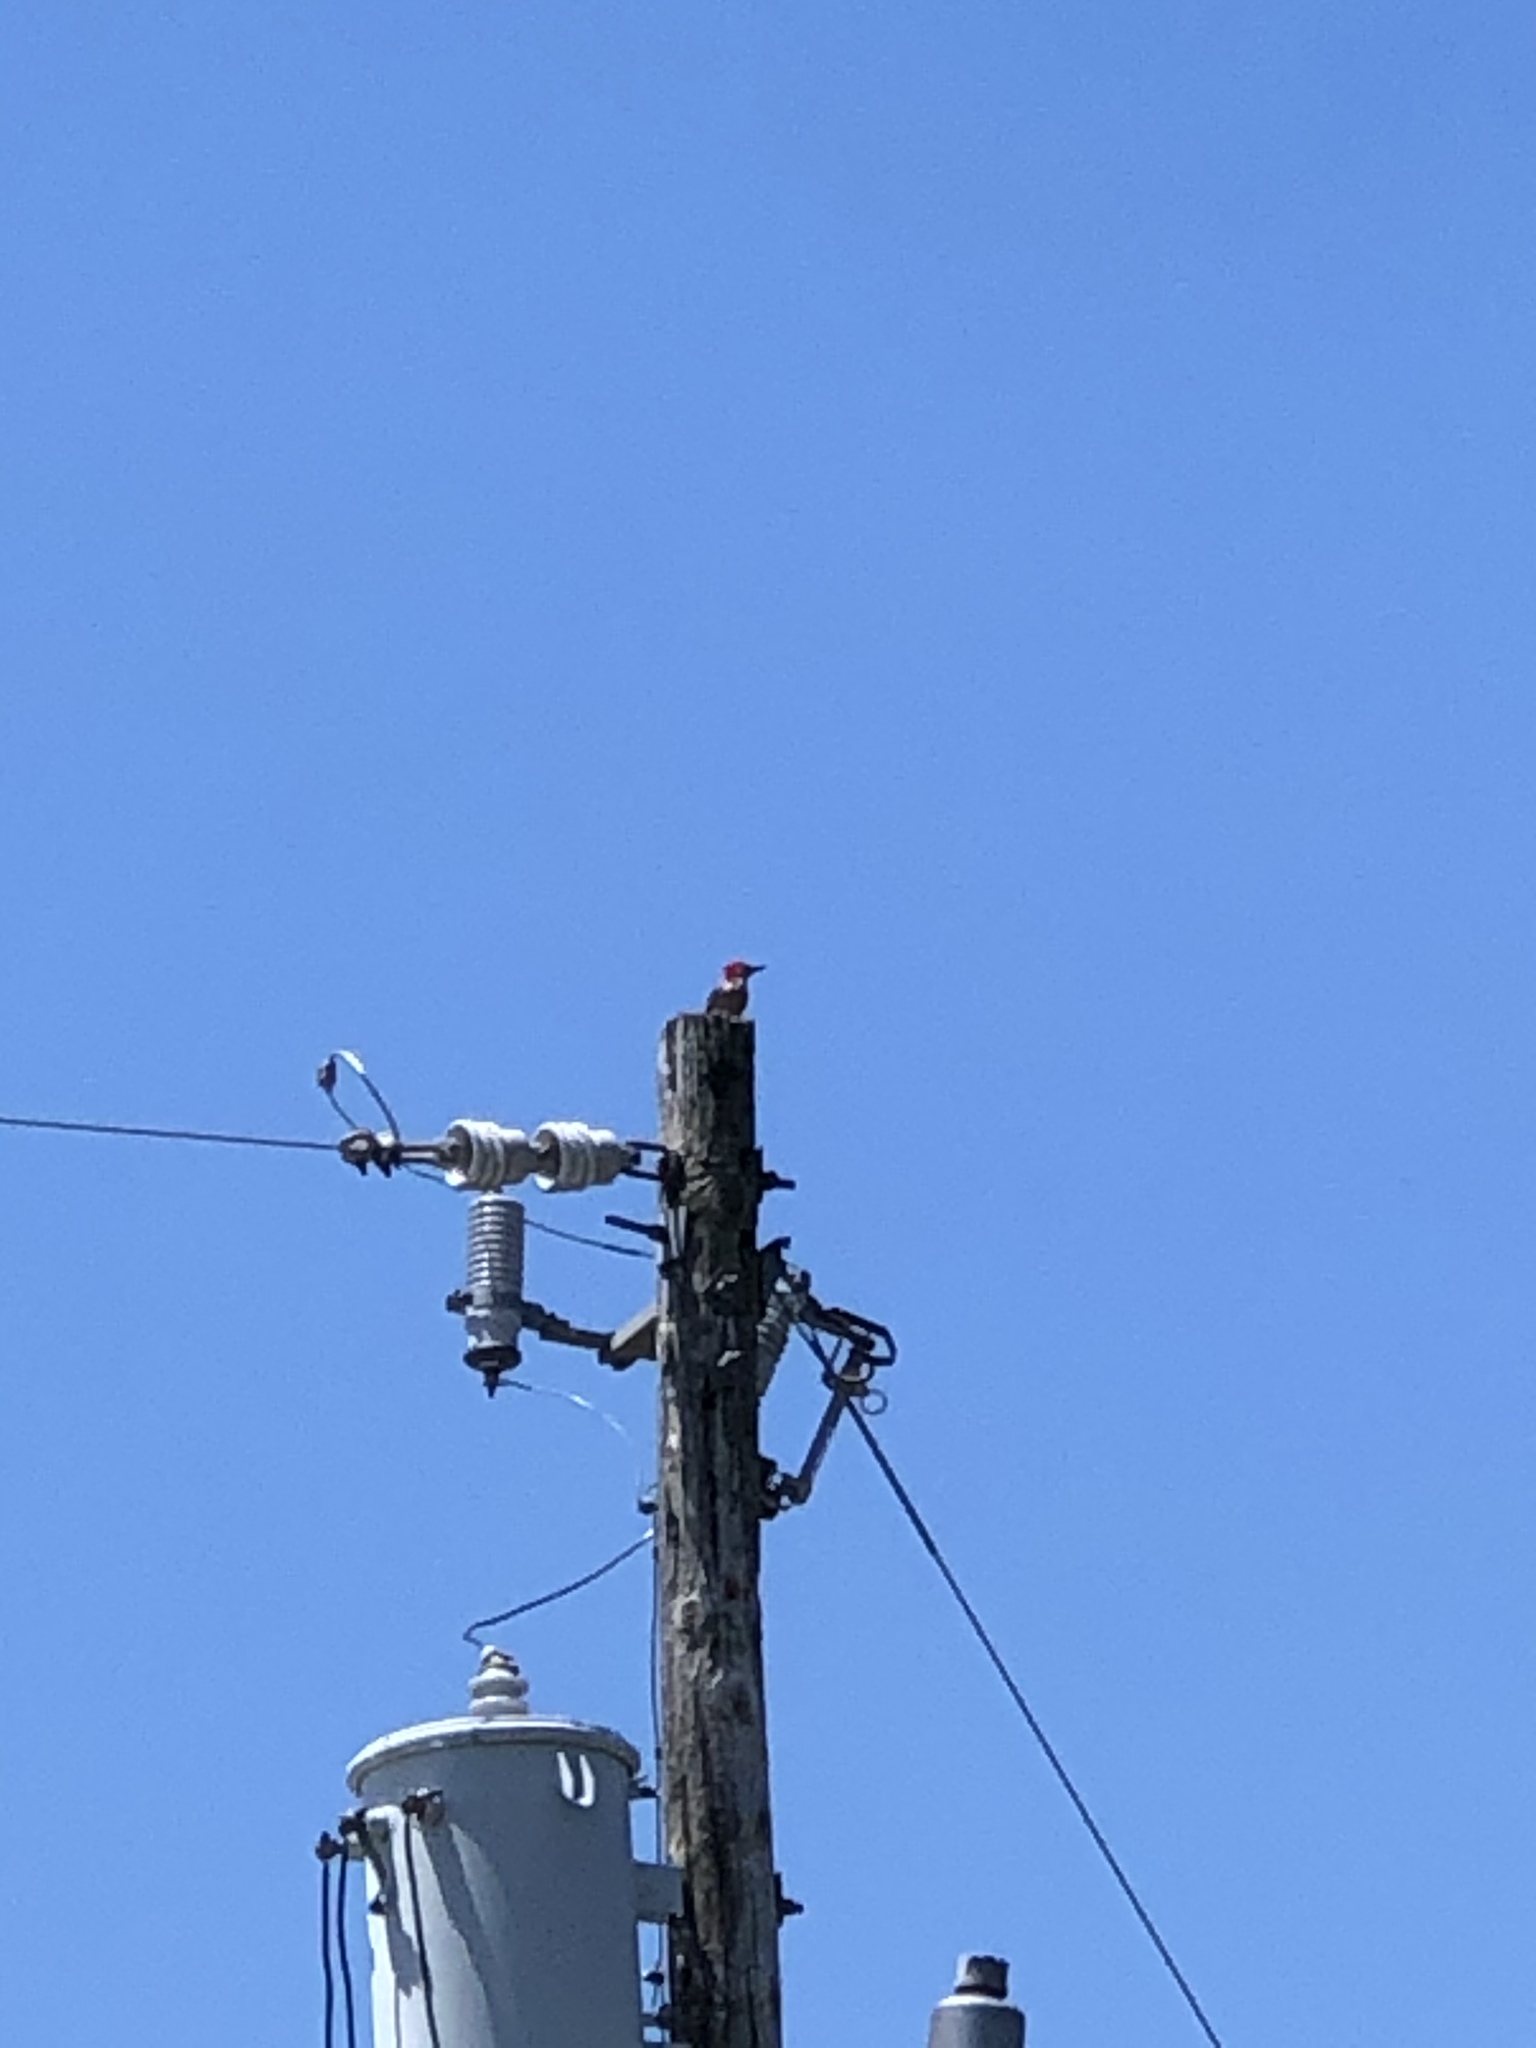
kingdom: Animalia
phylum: Chordata
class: Aves
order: Piciformes
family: Picidae
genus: Melanerpes
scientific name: Melanerpes carolinus
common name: Red-bellied woodpecker
